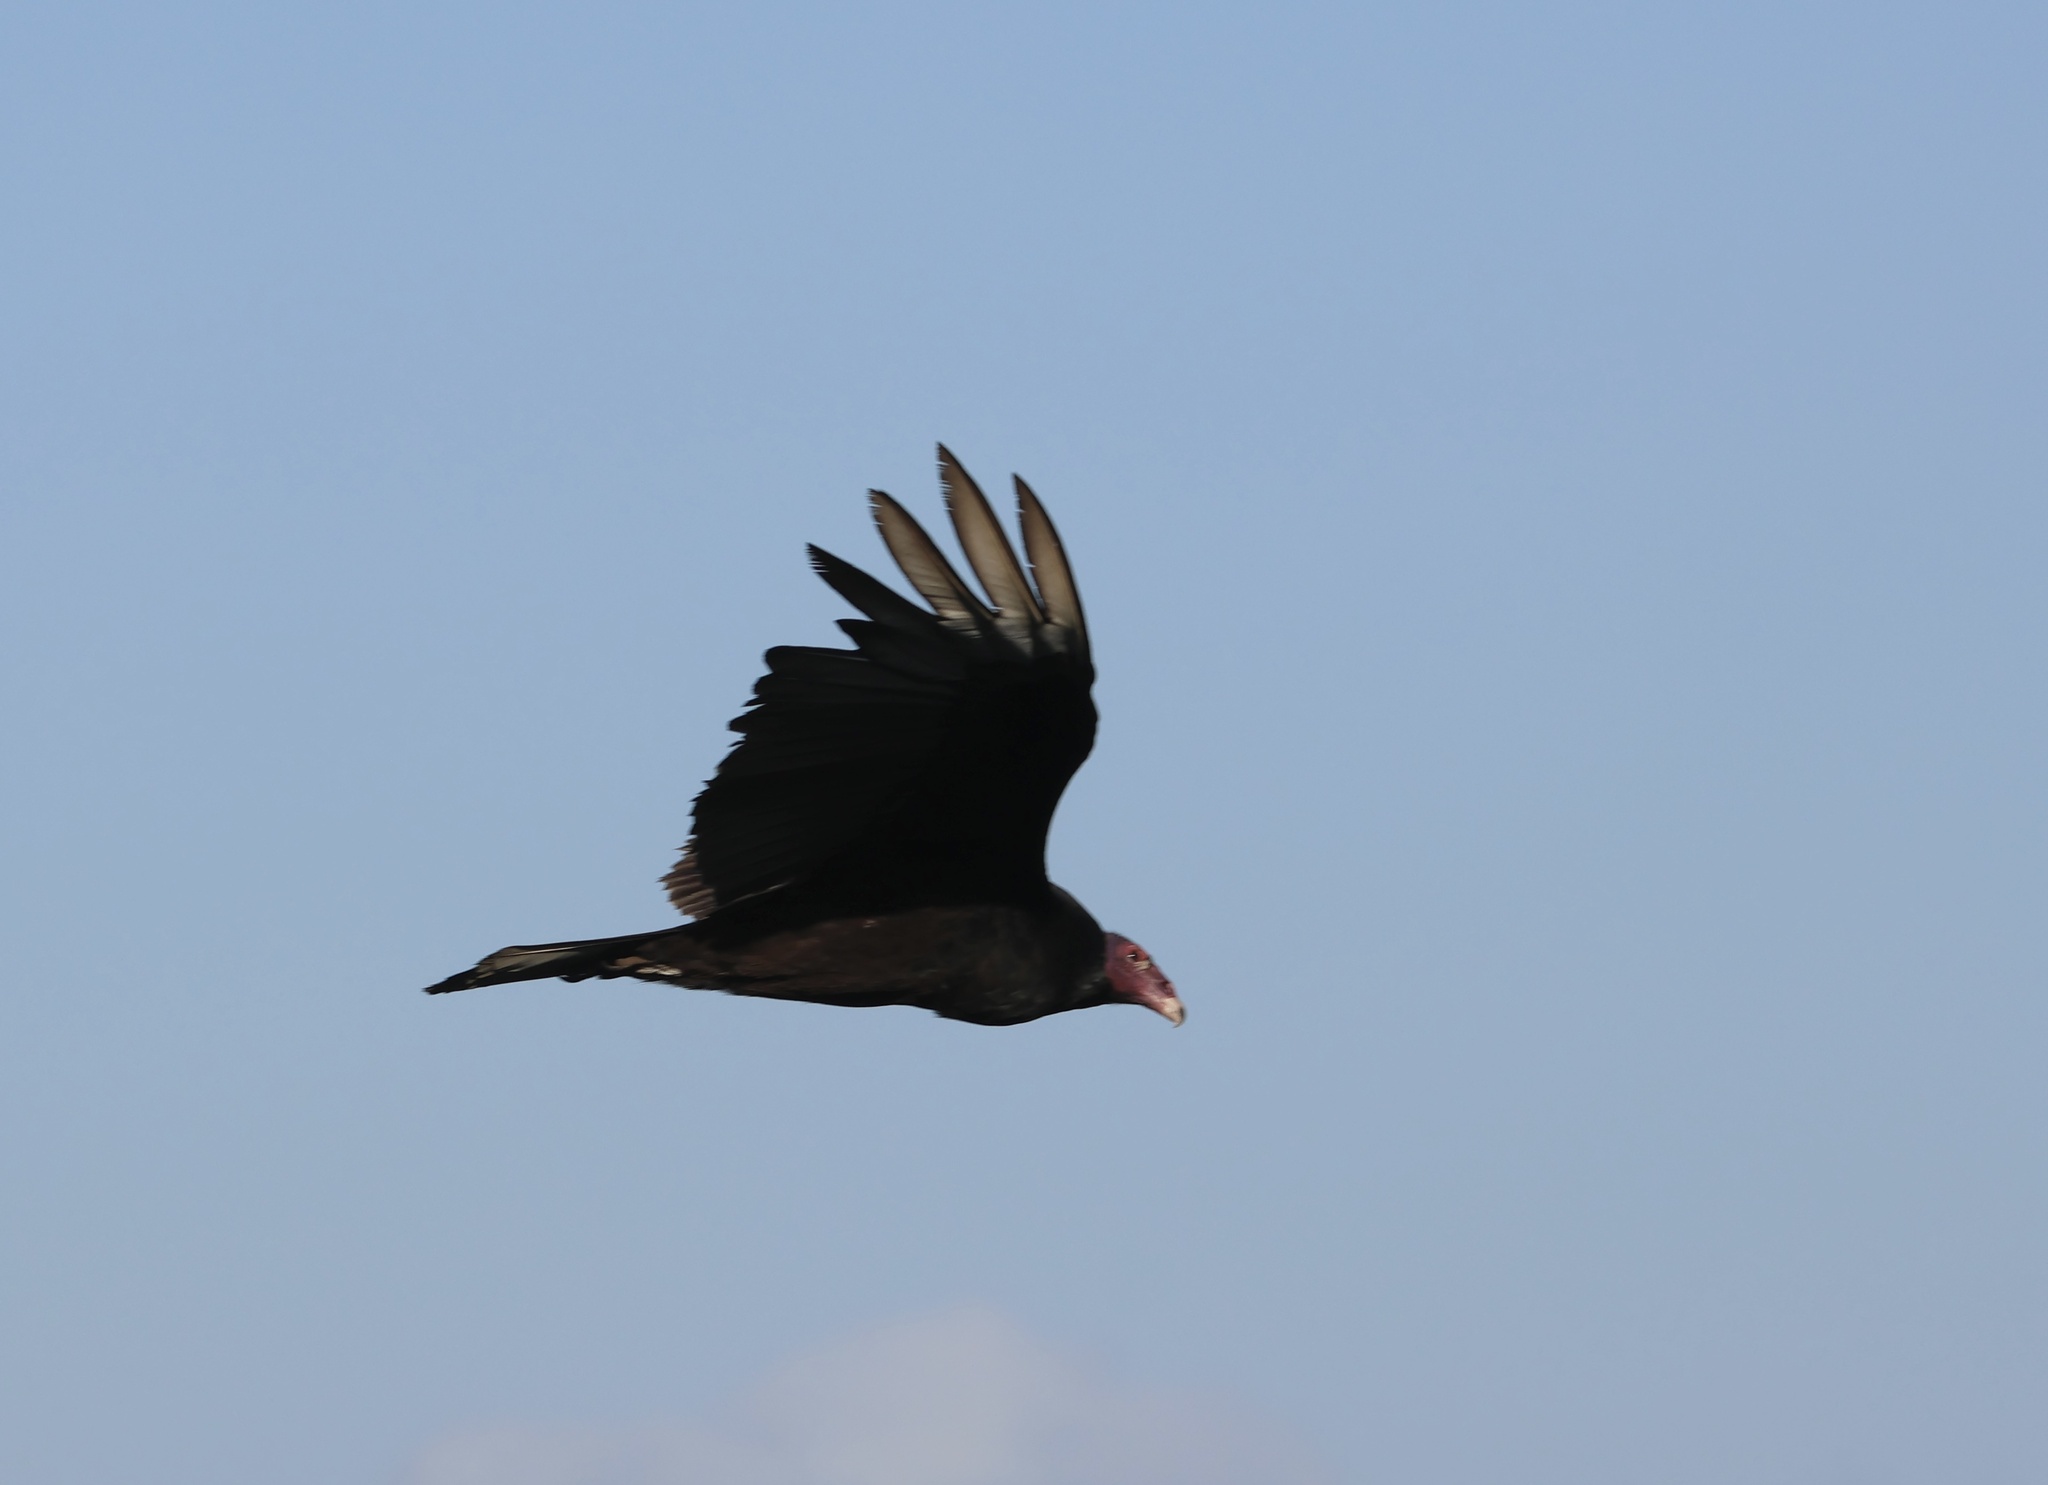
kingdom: Animalia
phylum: Chordata
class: Aves
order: Accipitriformes
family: Cathartidae
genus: Cathartes
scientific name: Cathartes aura
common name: Turkey vulture
